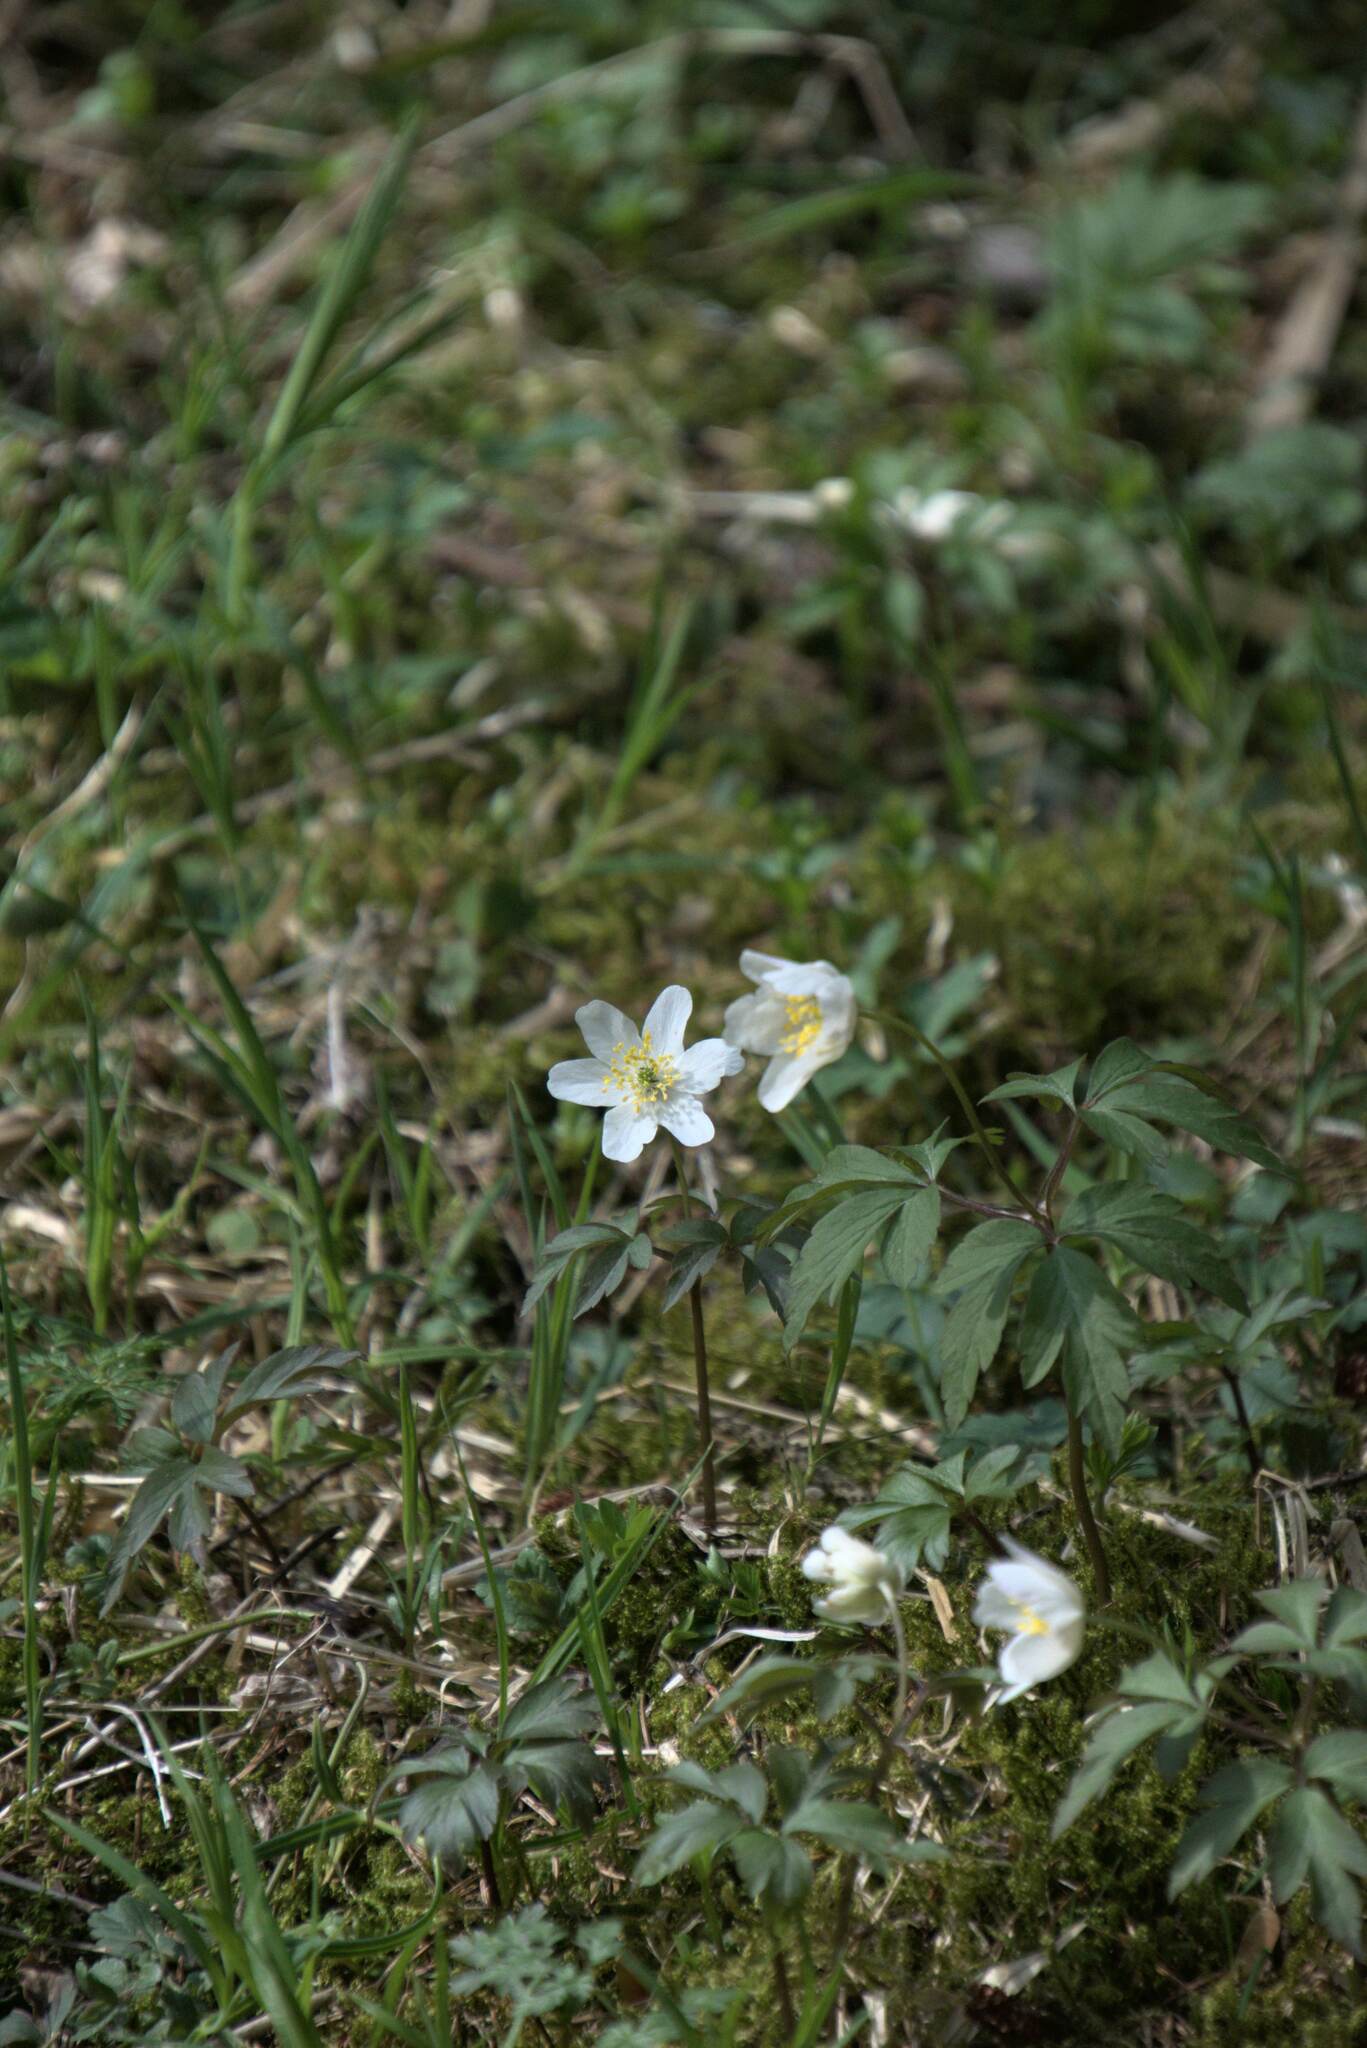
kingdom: Plantae
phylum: Tracheophyta
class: Magnoliopsida
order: Ranunculales
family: Ranunculaceae
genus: Anemone
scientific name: Anemone nemorosa
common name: Wood anemone
